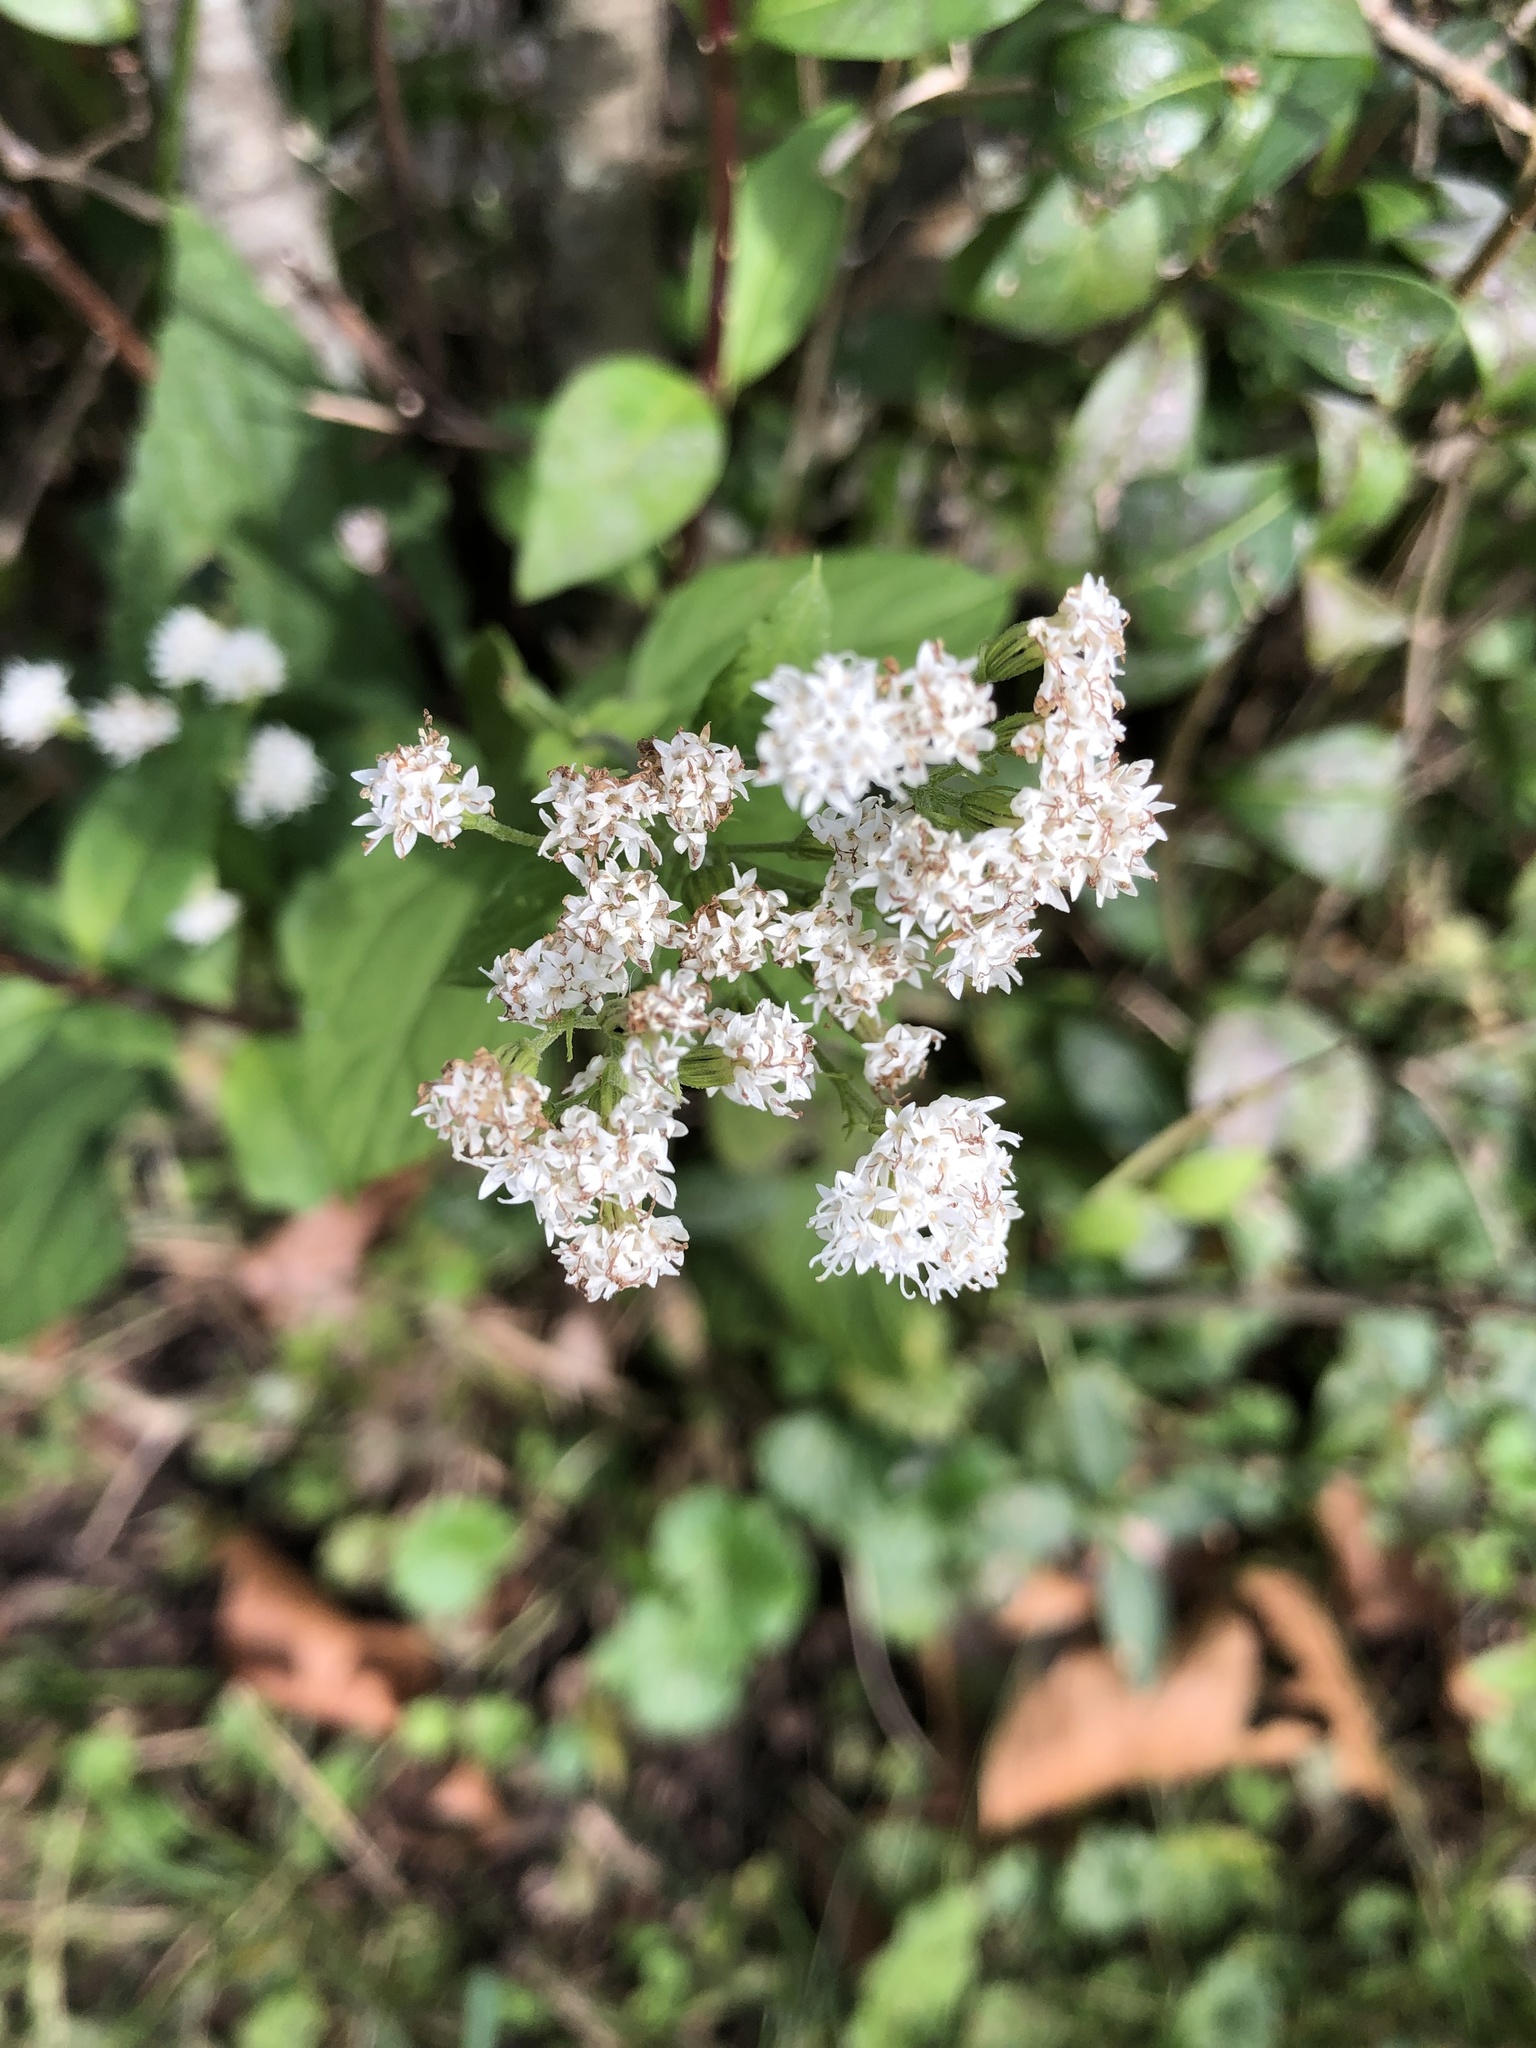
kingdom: Plantae
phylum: Tracheophyta
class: Magnoliopsida
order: Asterales
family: Asteraceae
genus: Ageratina
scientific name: Ageratina altissima
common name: White snakeroot
